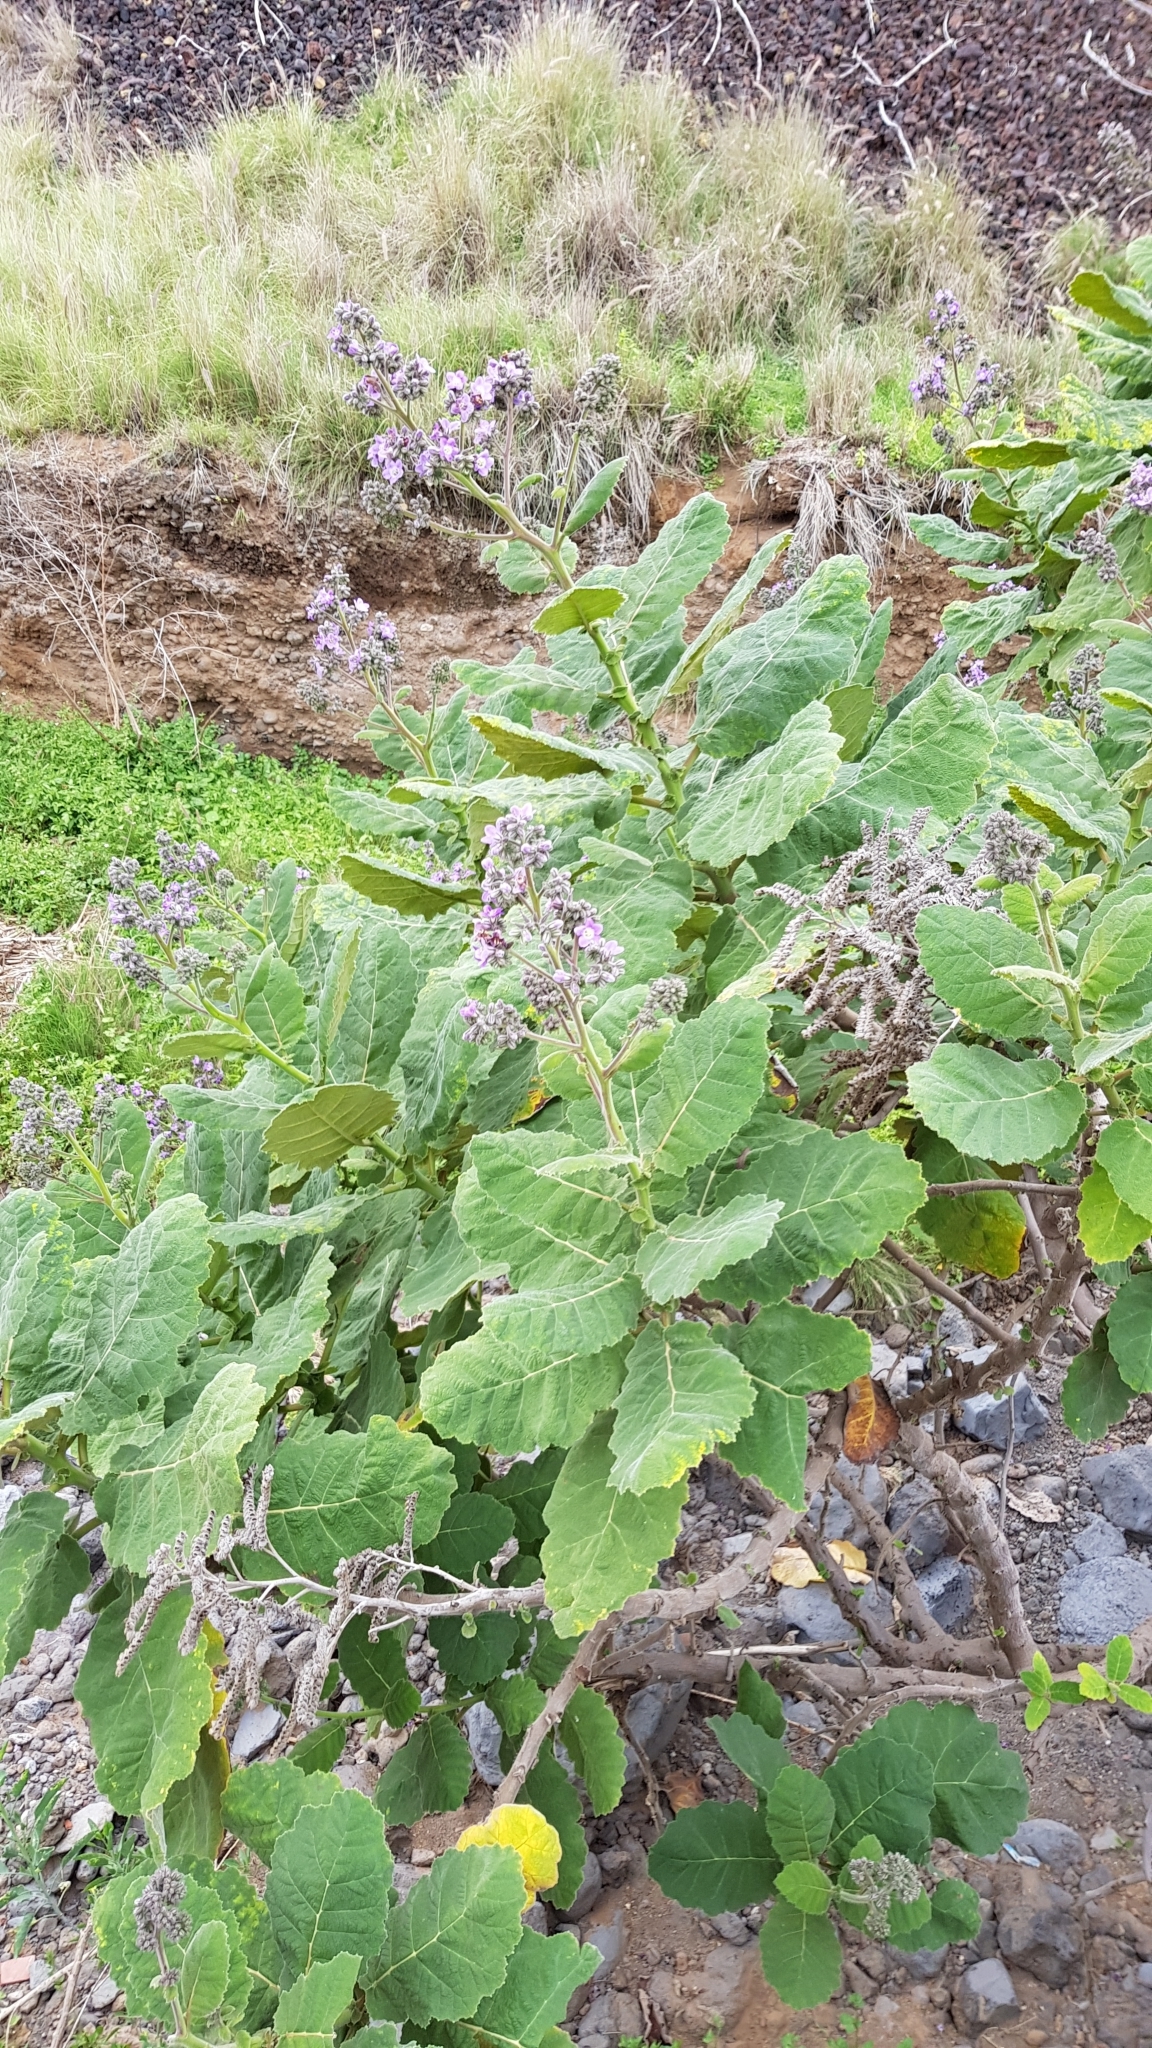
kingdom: Plantae
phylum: Tracheophyta
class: Magnoliopsida
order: Boraginales
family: Namaceae
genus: Wigandia
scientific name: Wigandia urens
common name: Caracus wigandia
